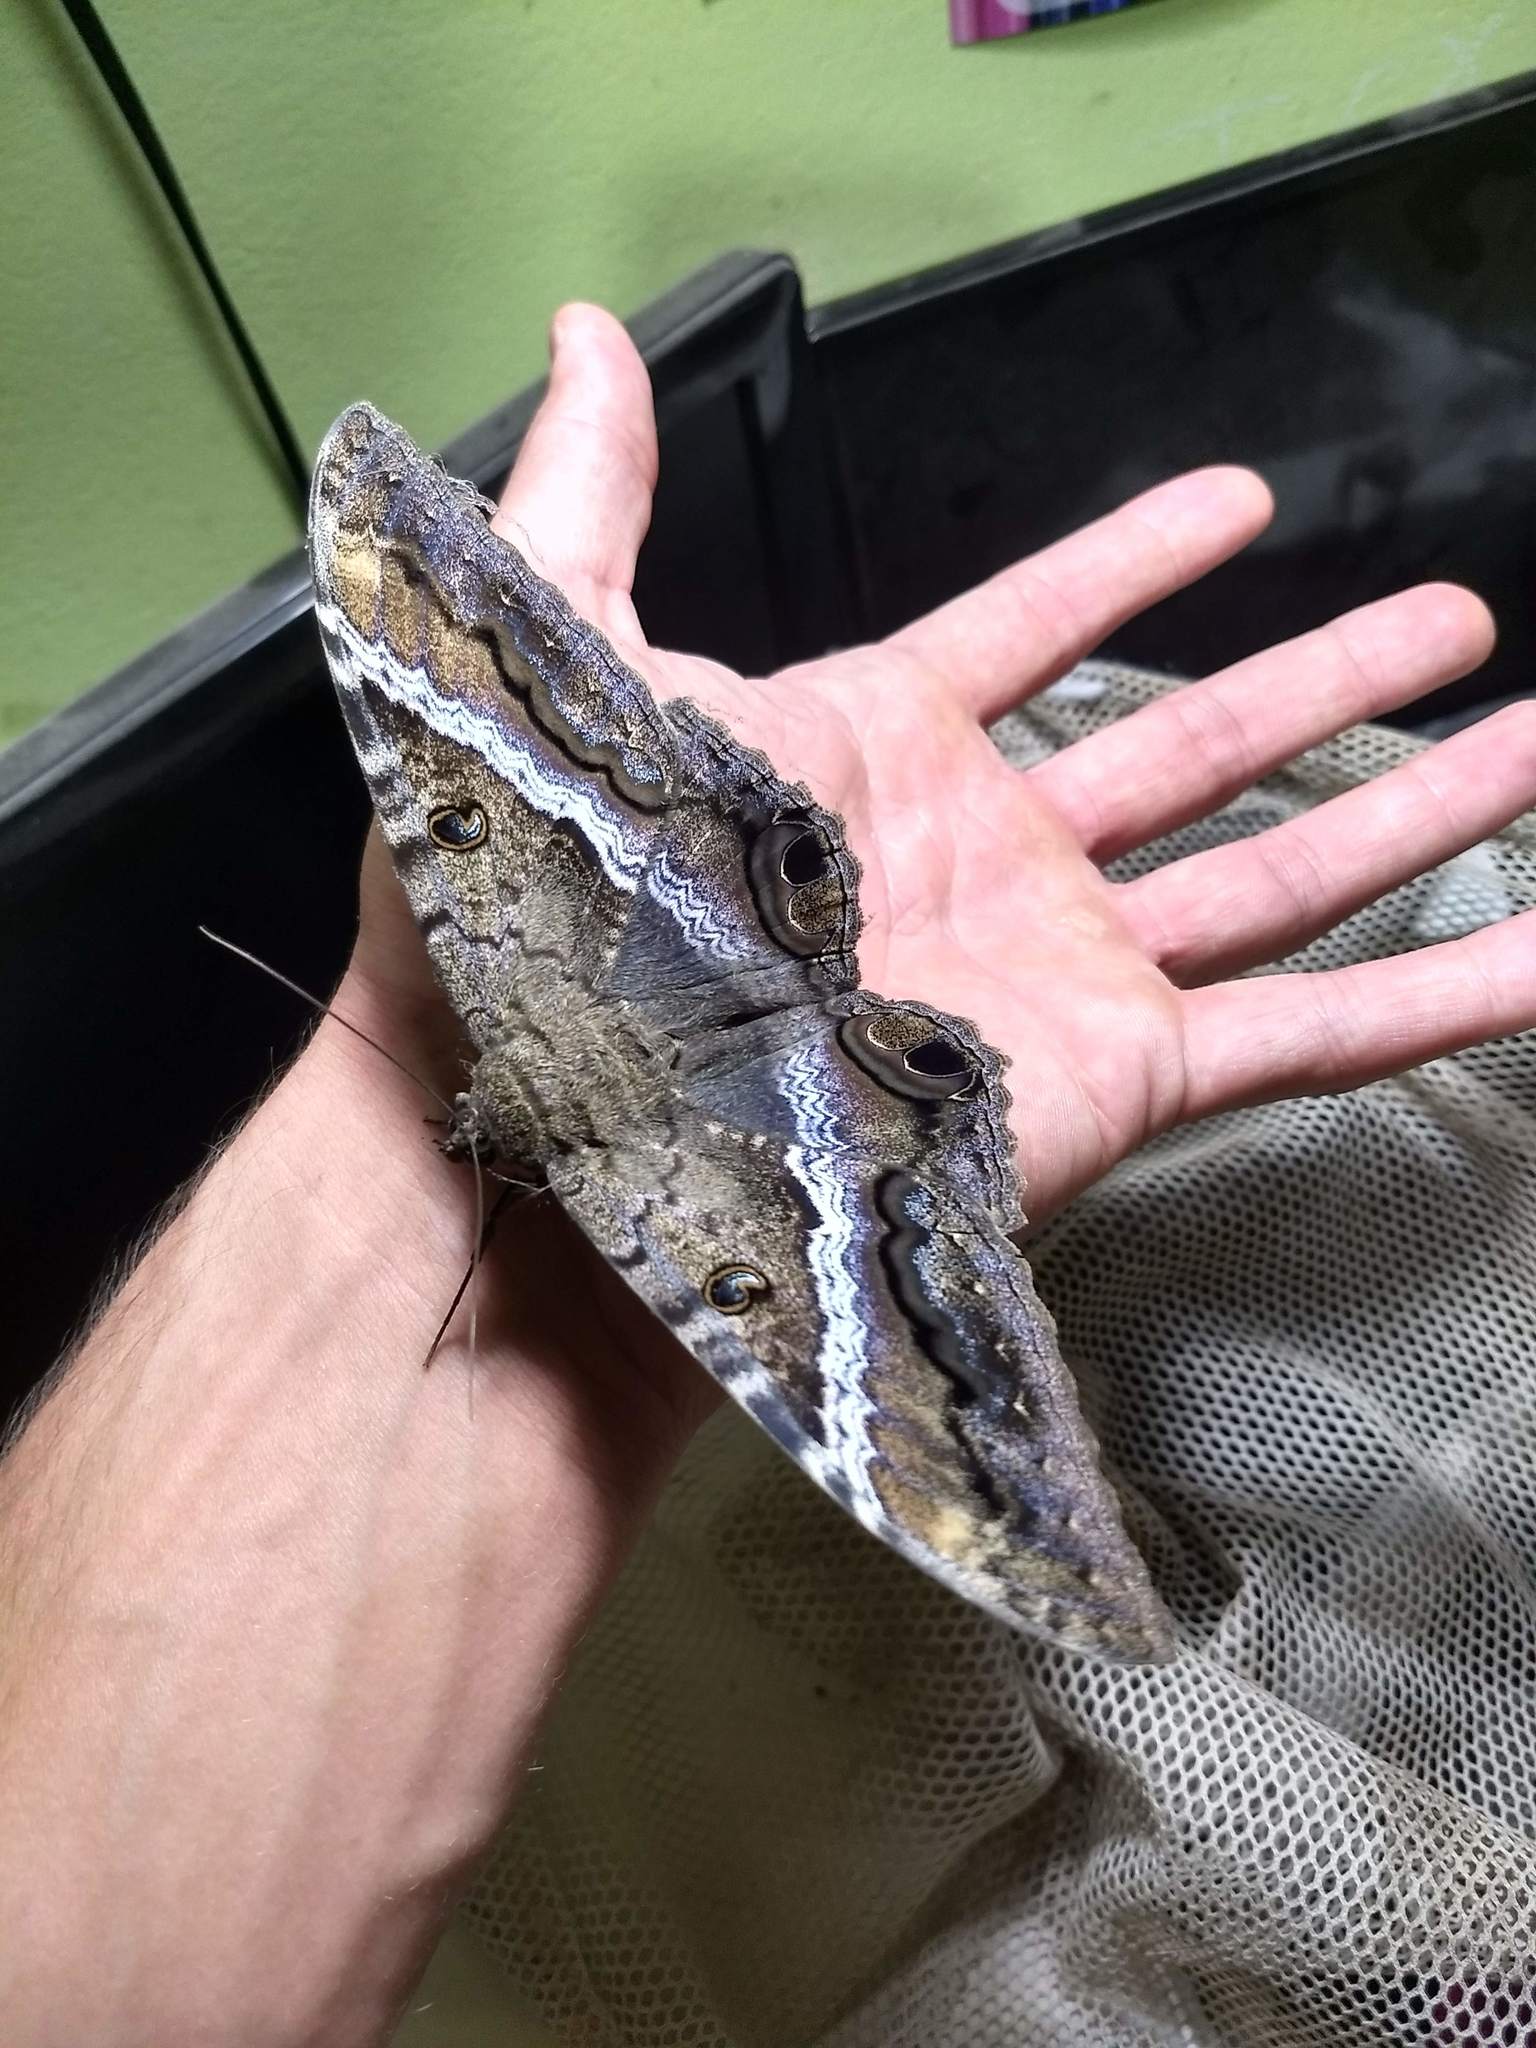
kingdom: Animalia
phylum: Arthropoda
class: Insecta
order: Lepidoptera
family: Erebidae
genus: Ascalapha
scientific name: Ascalapha odorata
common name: Black witch
